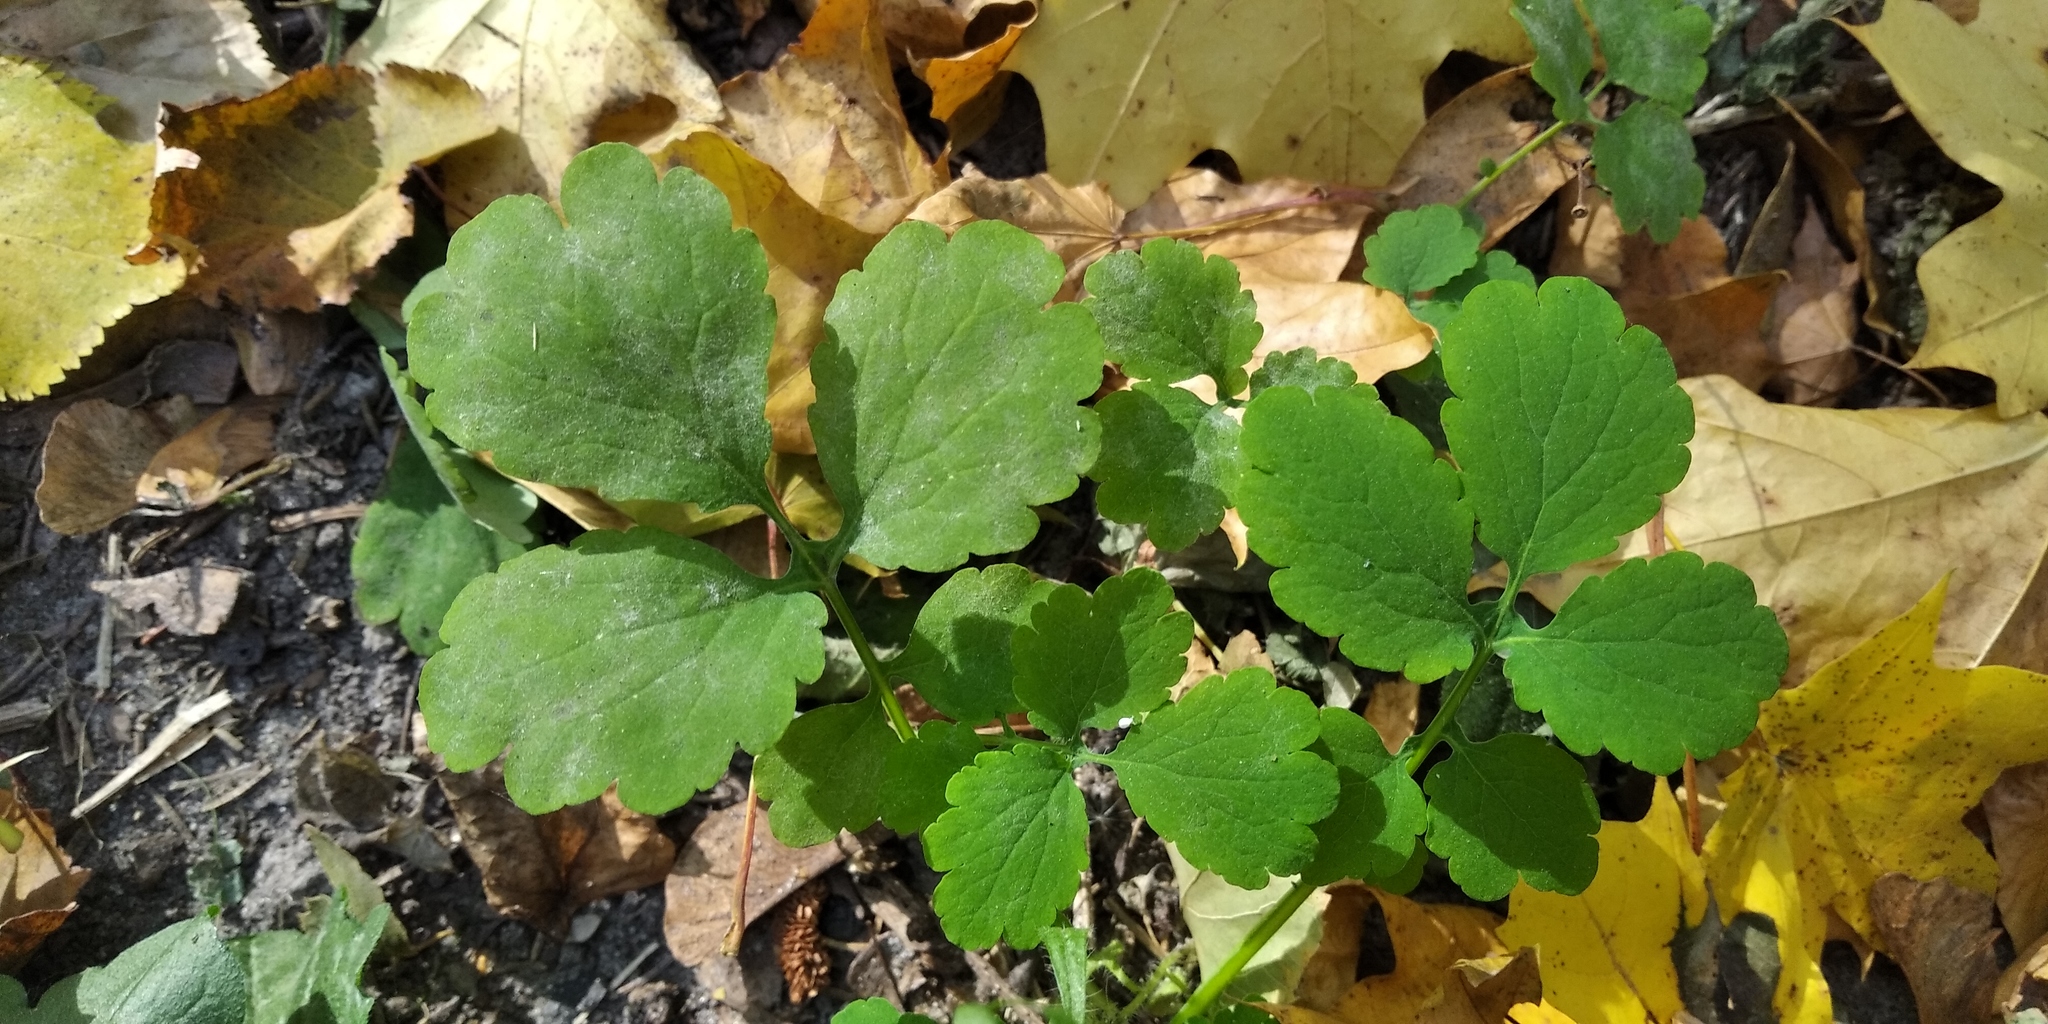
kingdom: Plantae
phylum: Tracheophyta
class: Magnoliopsida
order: Ranunculales
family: Papaveraceae
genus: Chelidonium
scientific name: Chelidonium majus
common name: Greater celandine
